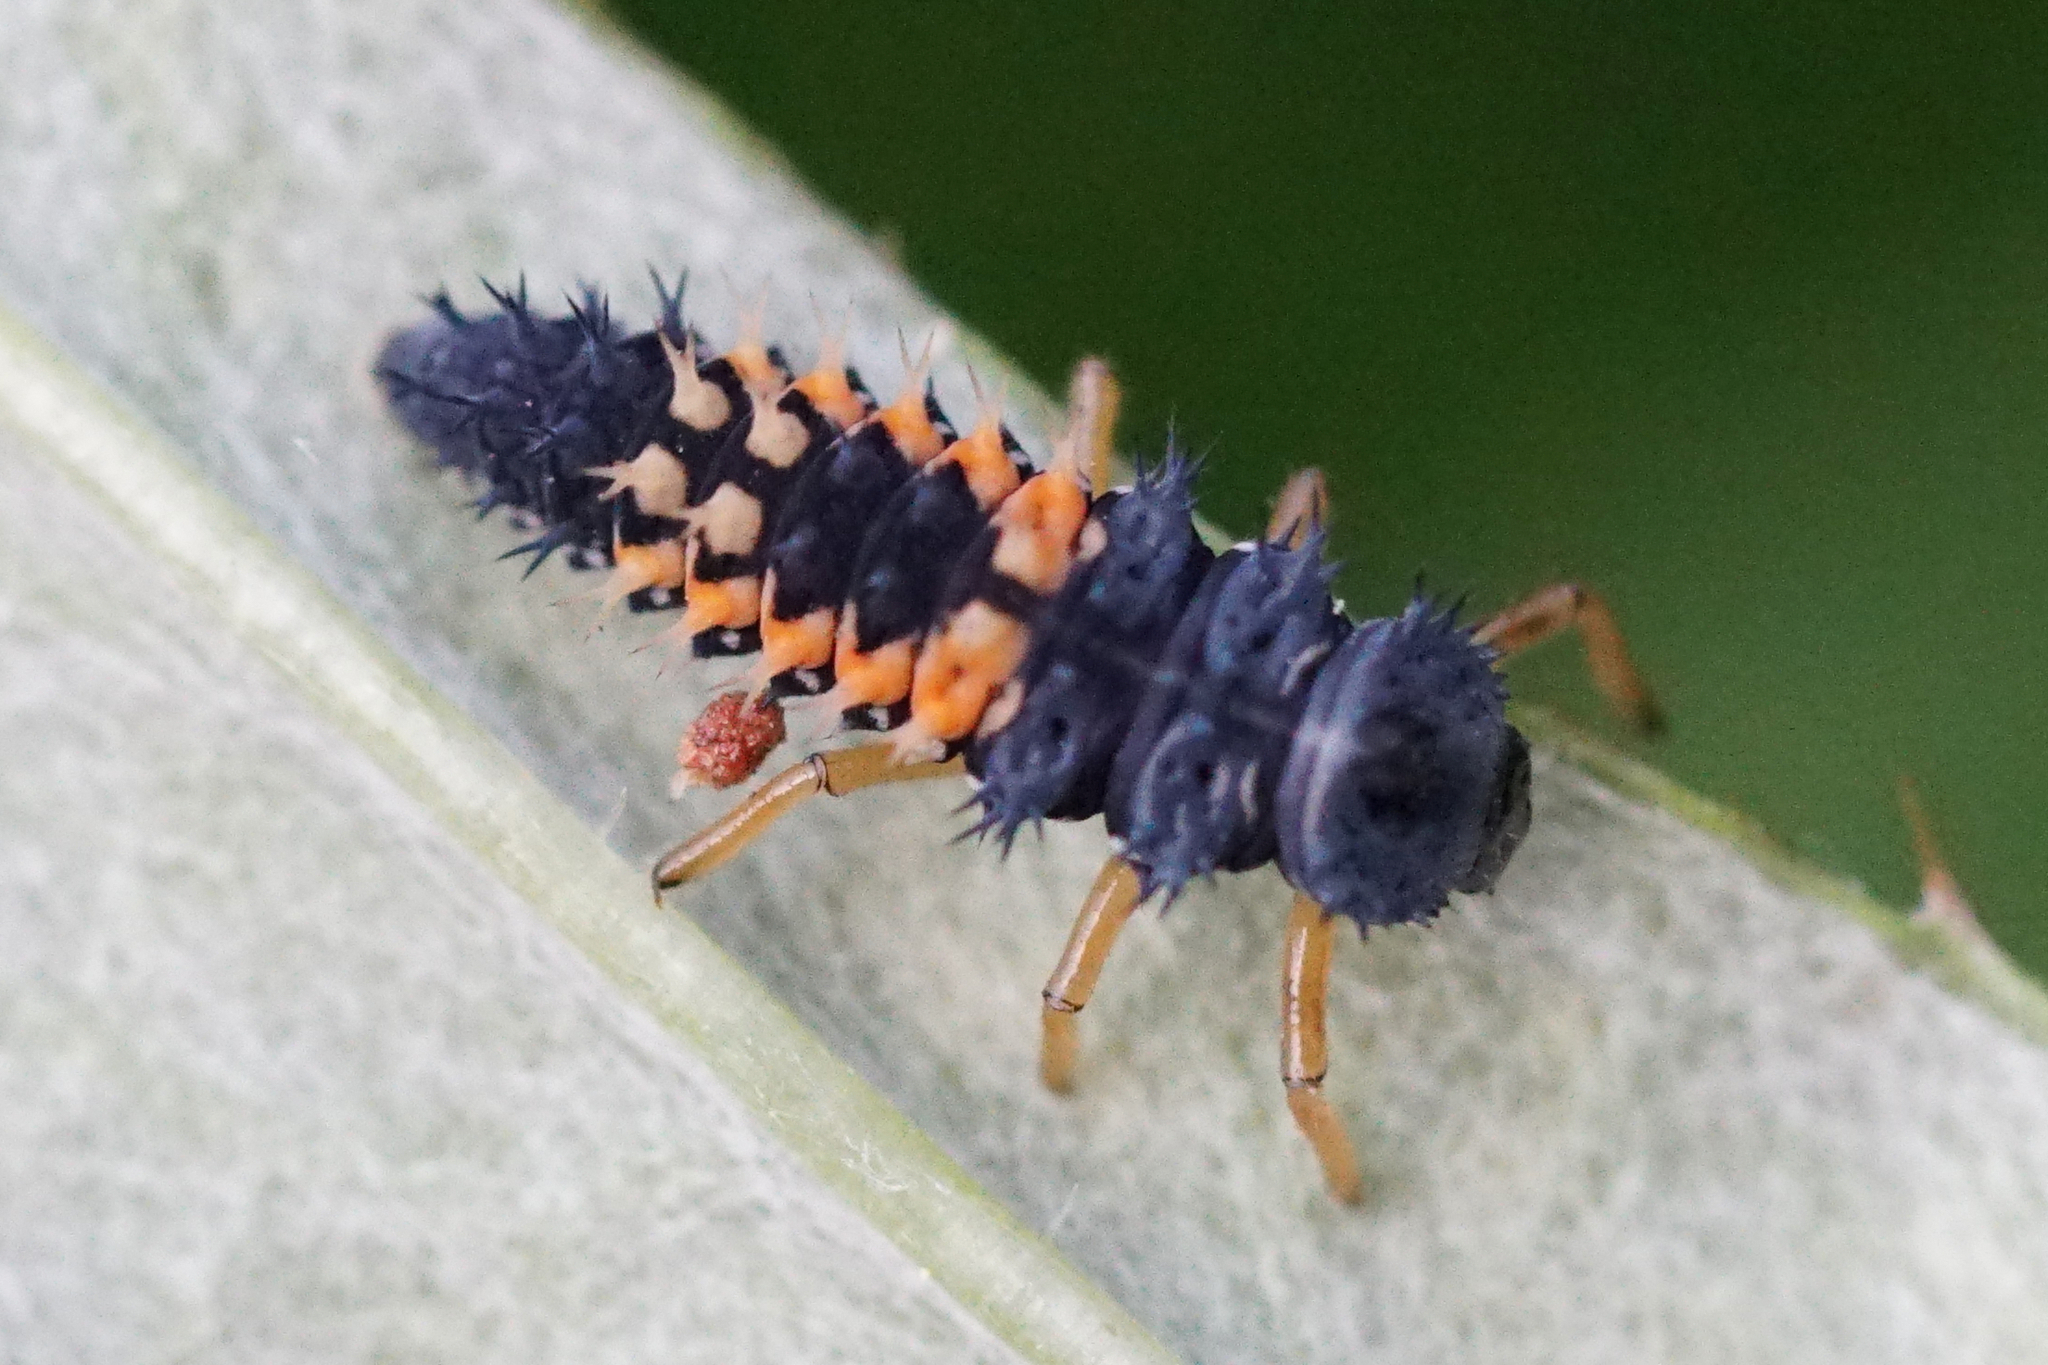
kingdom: Animalia
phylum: Arthropoda
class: Insecta
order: Coleoptera
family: Coccinellidae
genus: Harmonia
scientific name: Harmonia axyridis
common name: Harlequin ladybird
